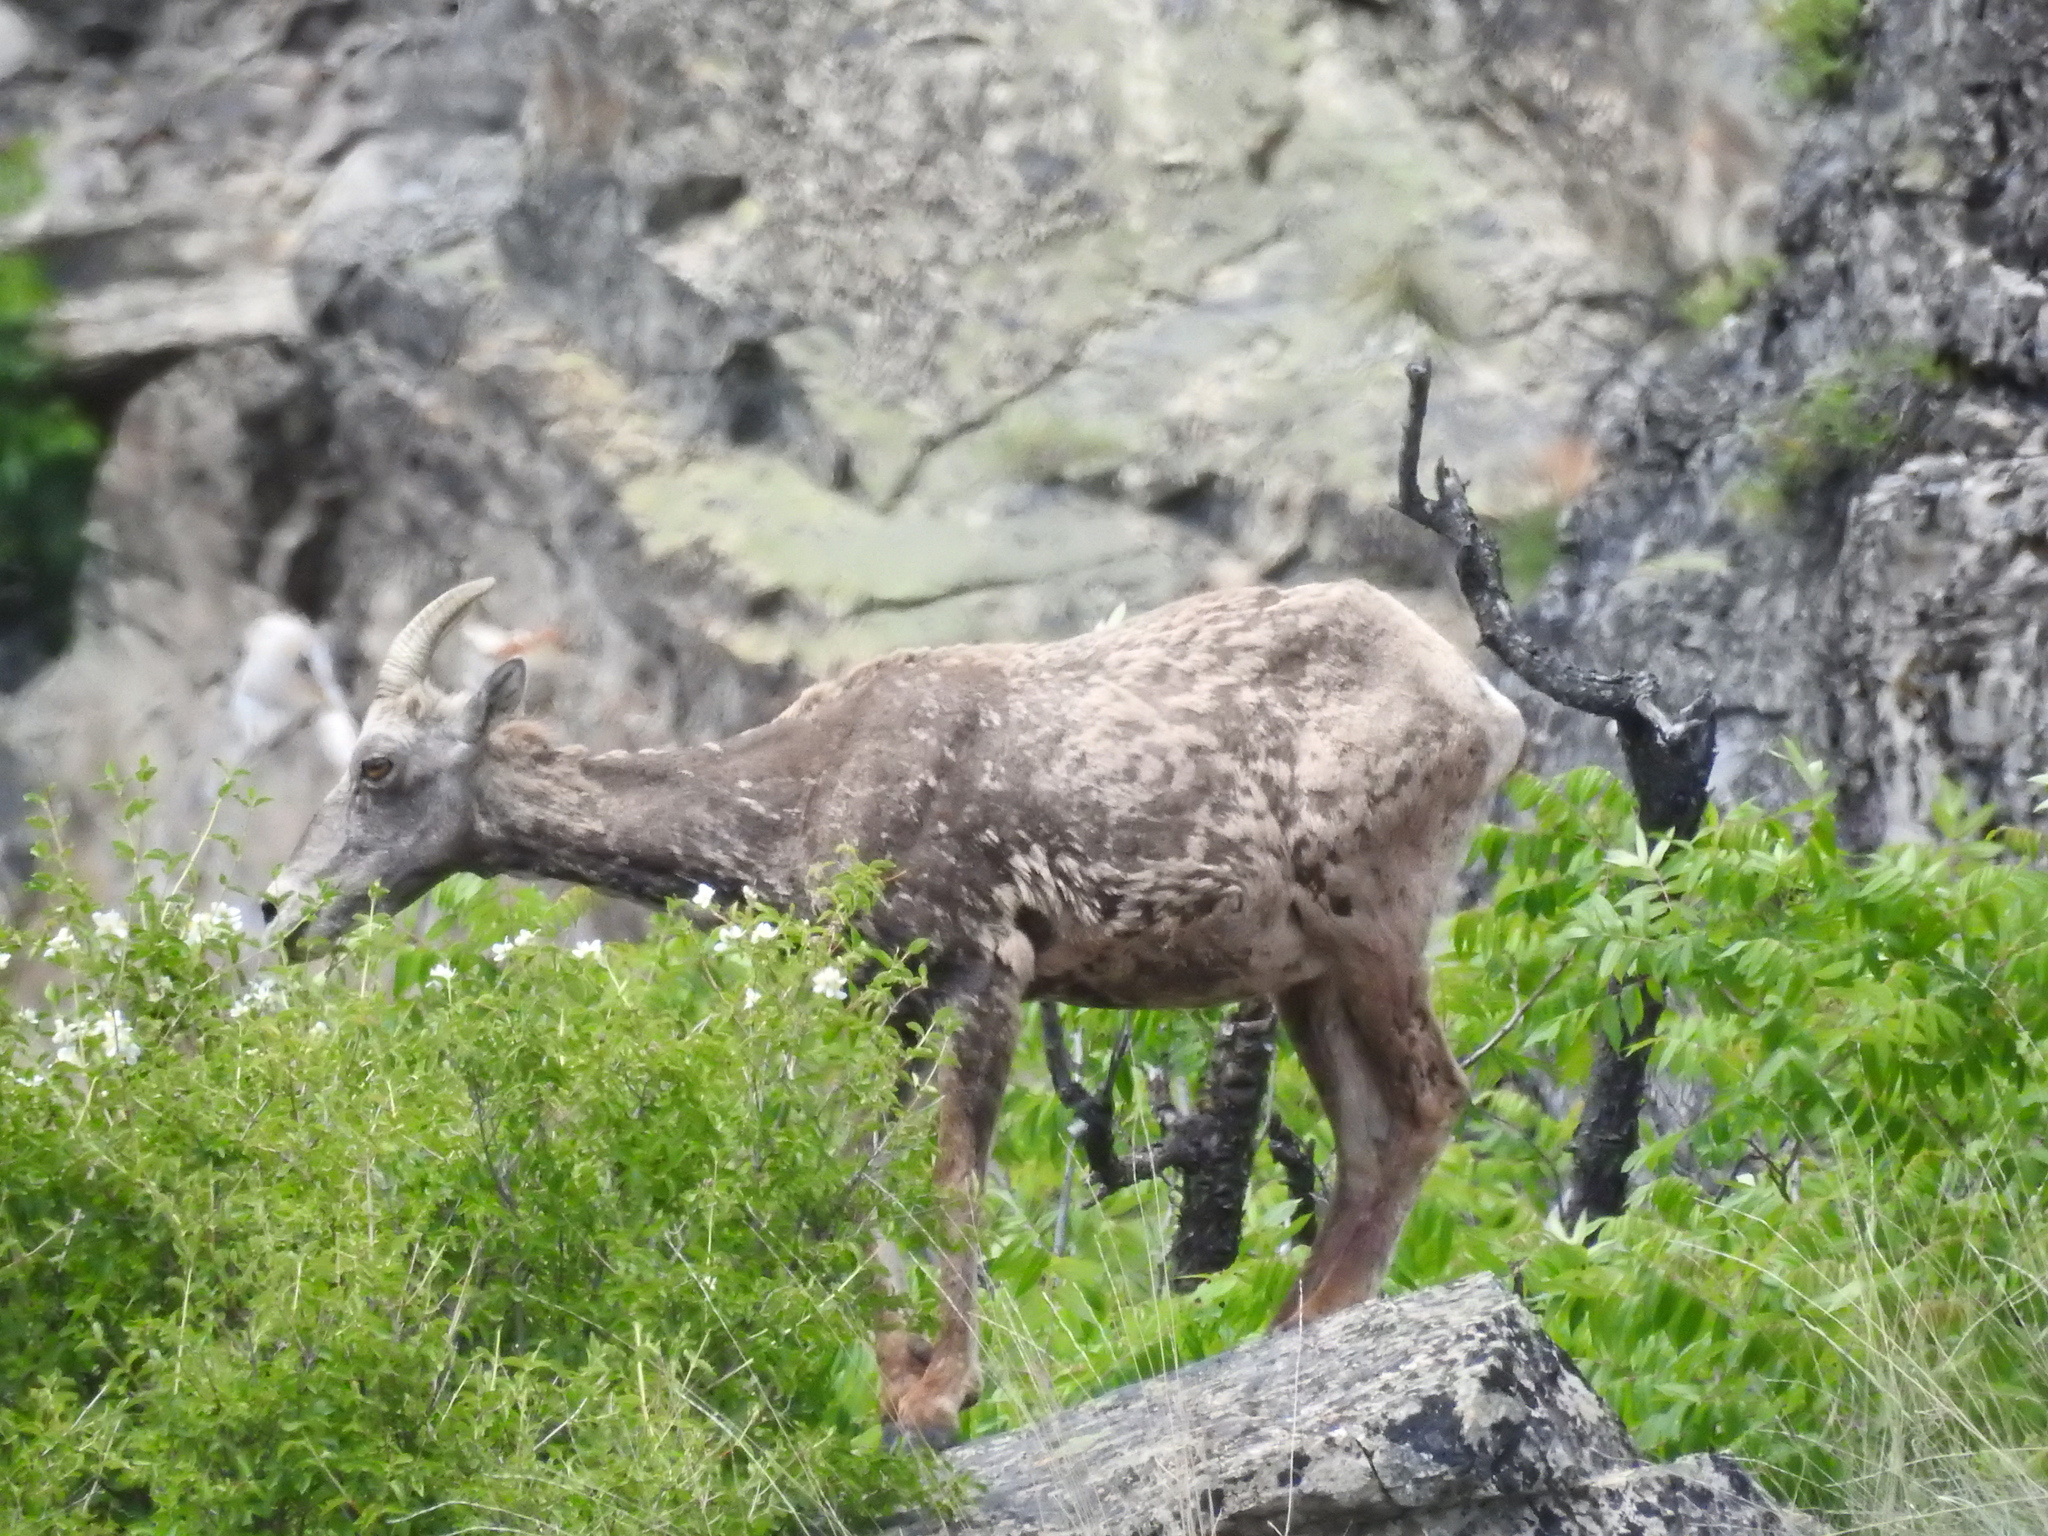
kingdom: Animalia
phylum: Chordata
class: Mammalia
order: Artiodactyla
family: Bovidae
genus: Ovis
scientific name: Ovis canadensis
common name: Bighorn sheep
